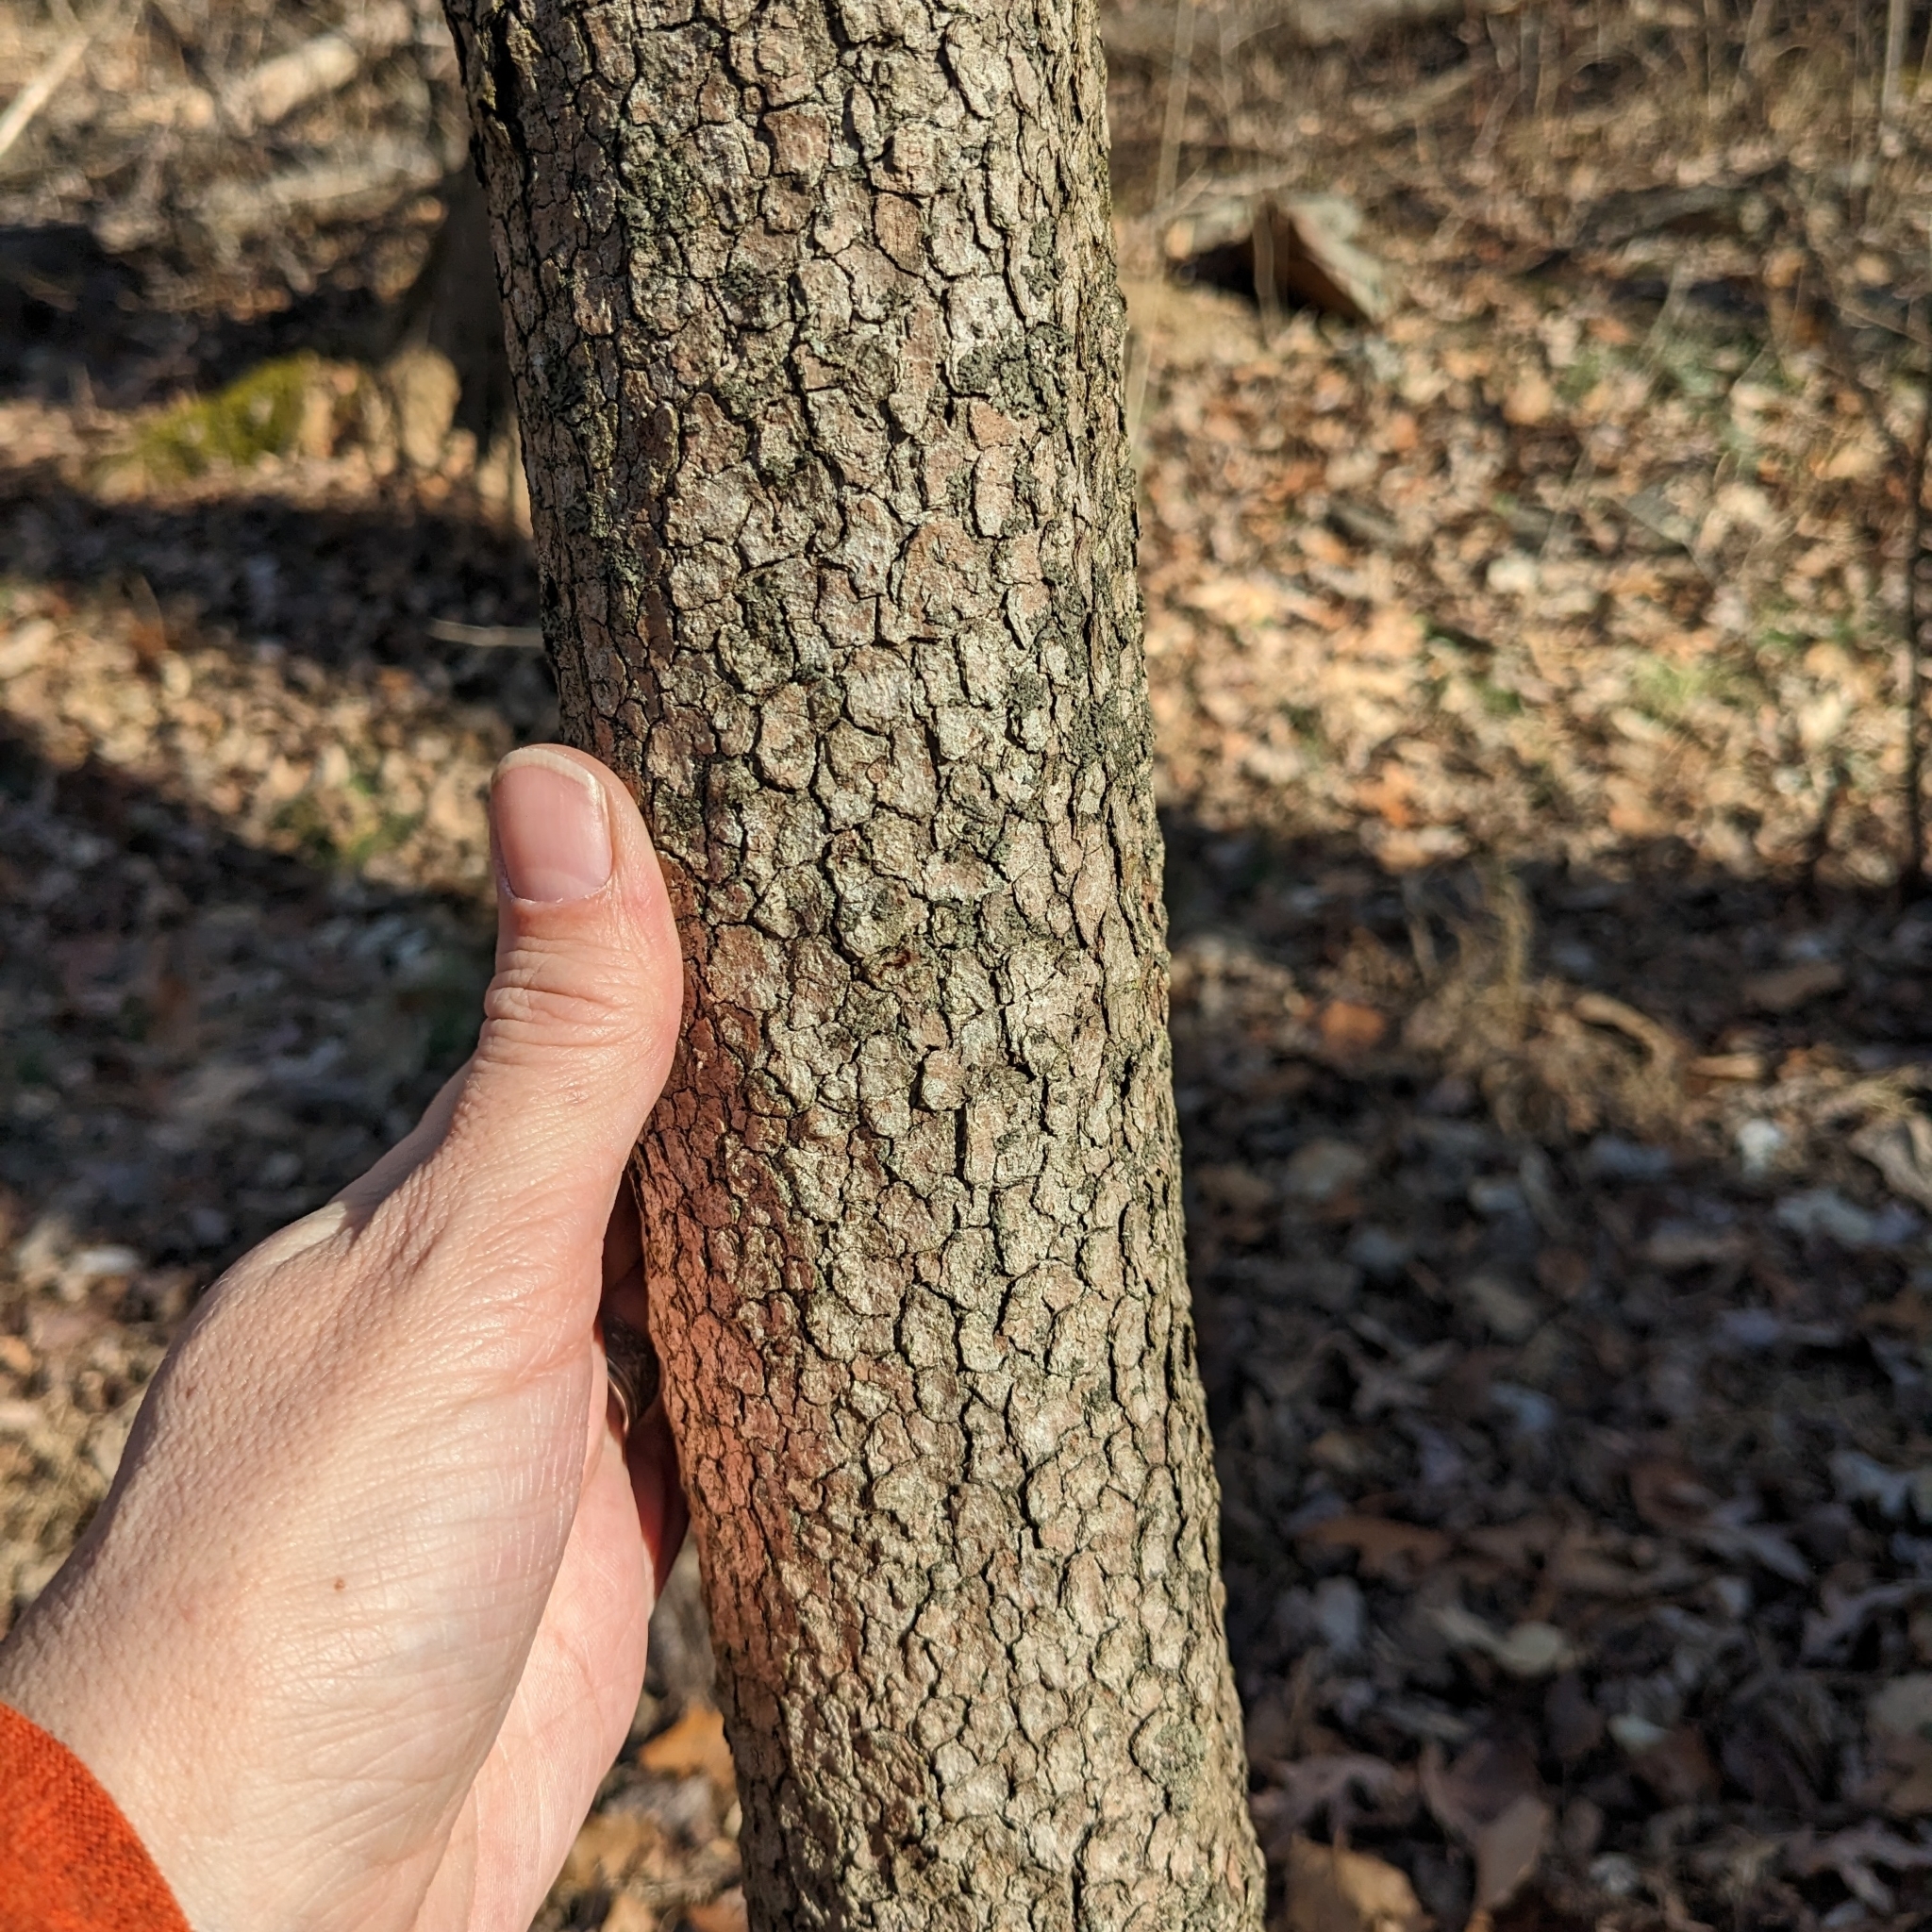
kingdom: Plantae
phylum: Tracheophyta
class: Magnoliopsida
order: Cornales
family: Cornaceae
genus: Cornus
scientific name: Cornus florida
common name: Flowering dogwood
